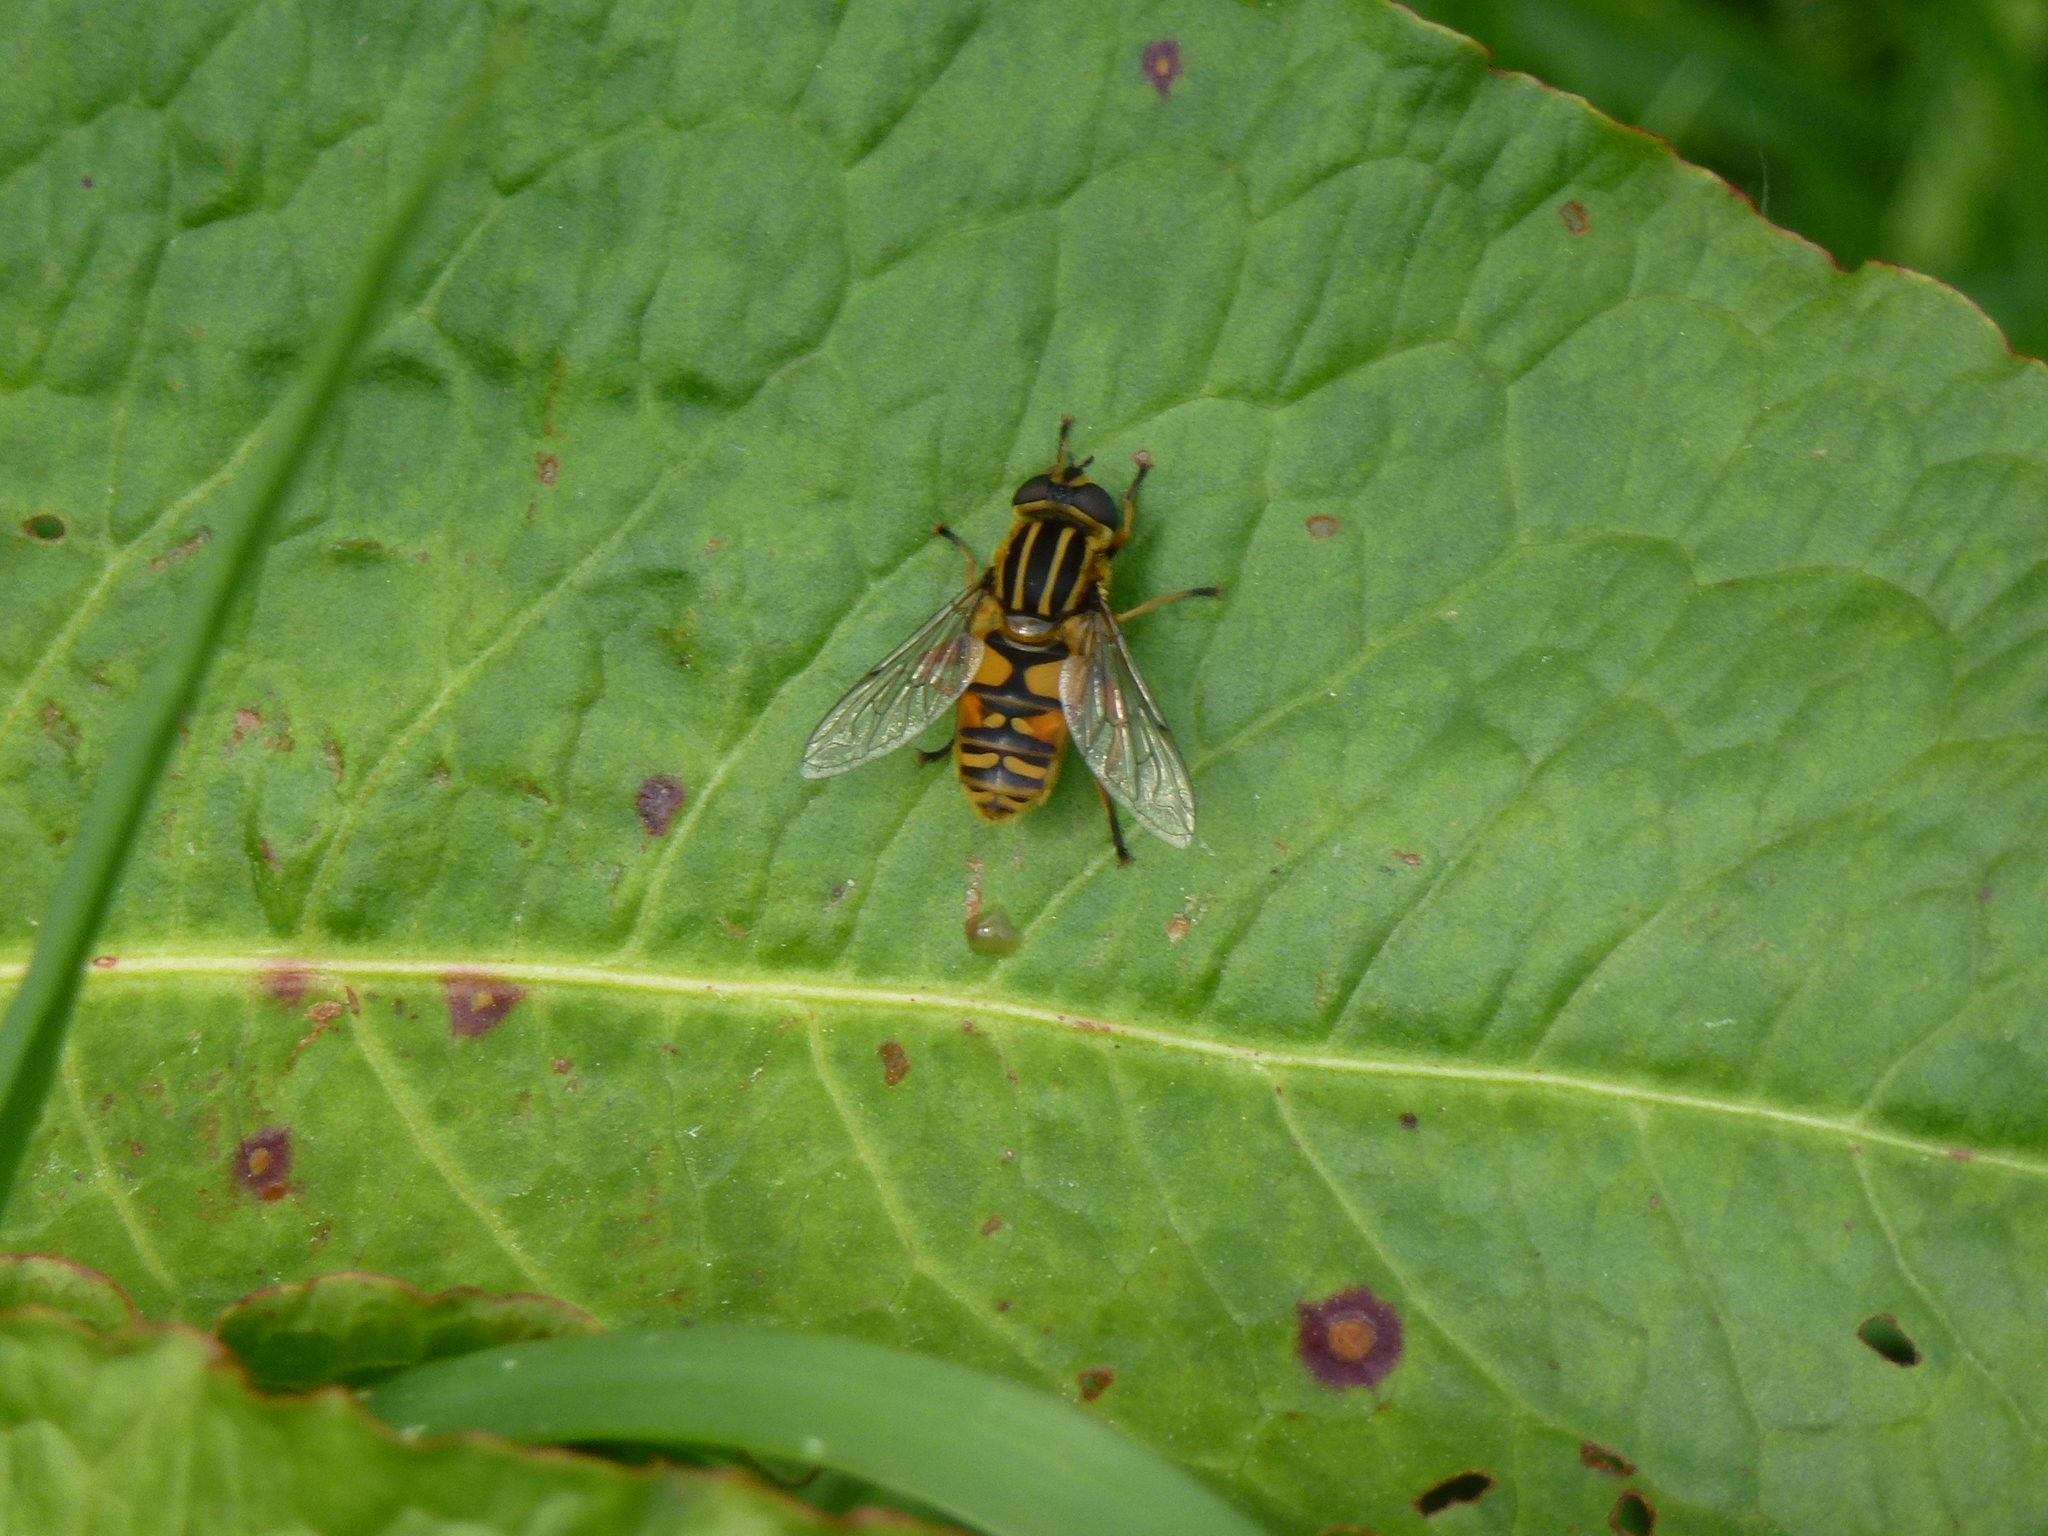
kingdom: Animalia
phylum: Arthropoda
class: Insecta
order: Diptera
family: Syrphidae
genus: Helophilus
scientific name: Helophilus pendulus
